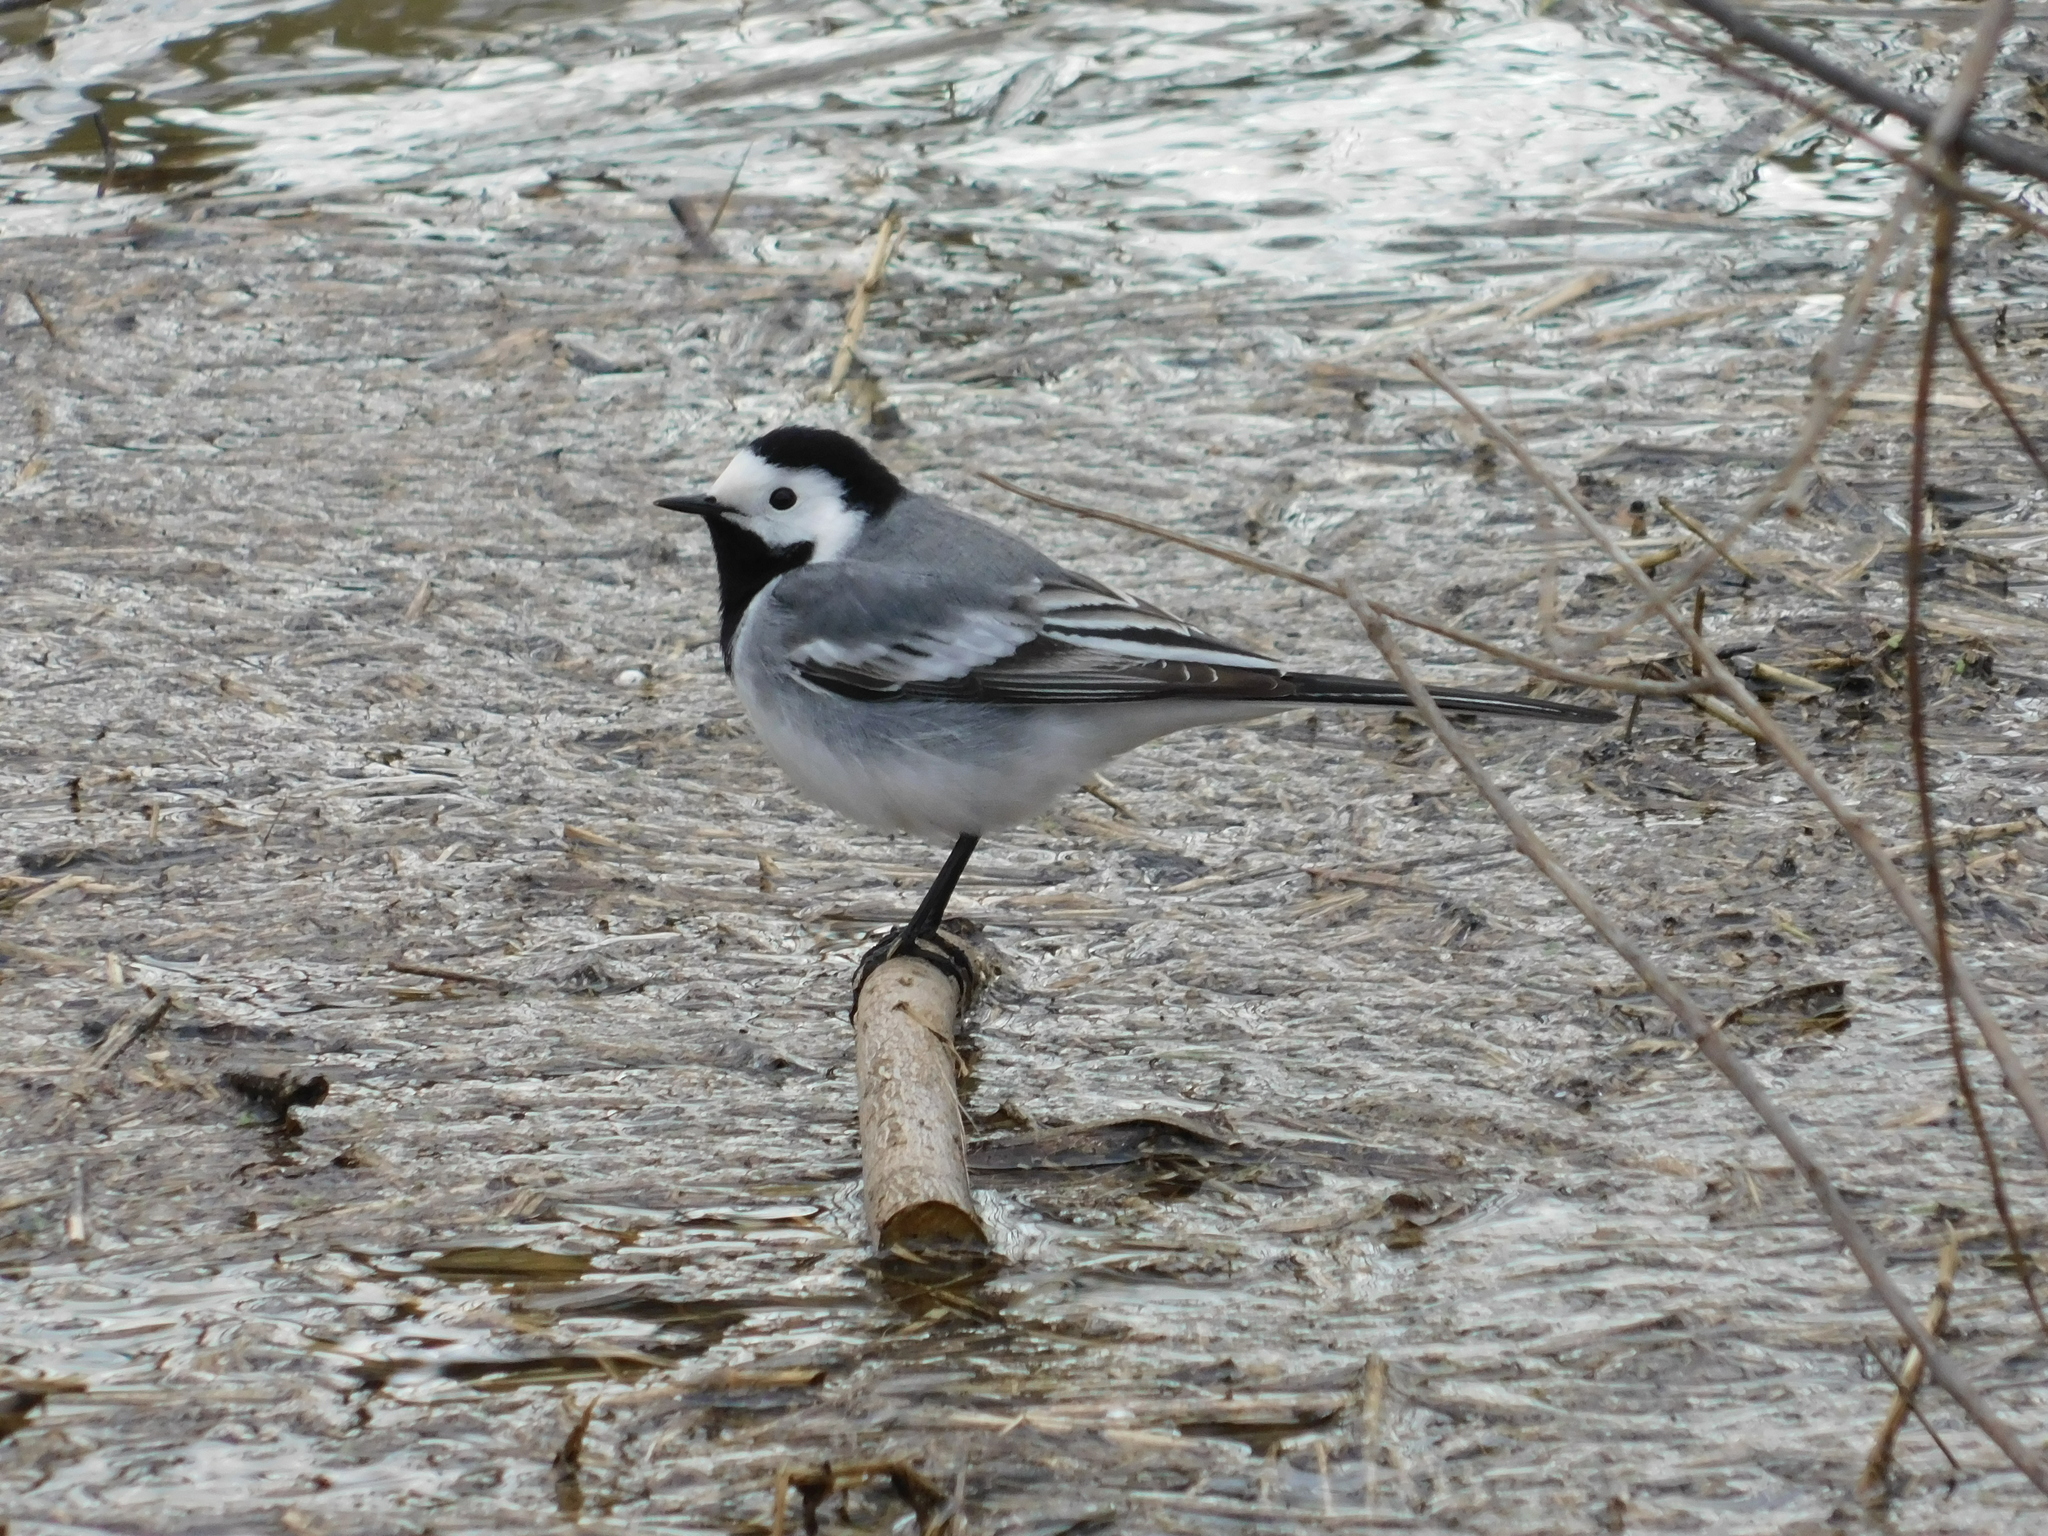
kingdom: Animalia
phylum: Chordata
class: Aves
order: Passeriformes
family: Motacillidae
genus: Motacilla
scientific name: Motacilla alba
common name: White wagtail
